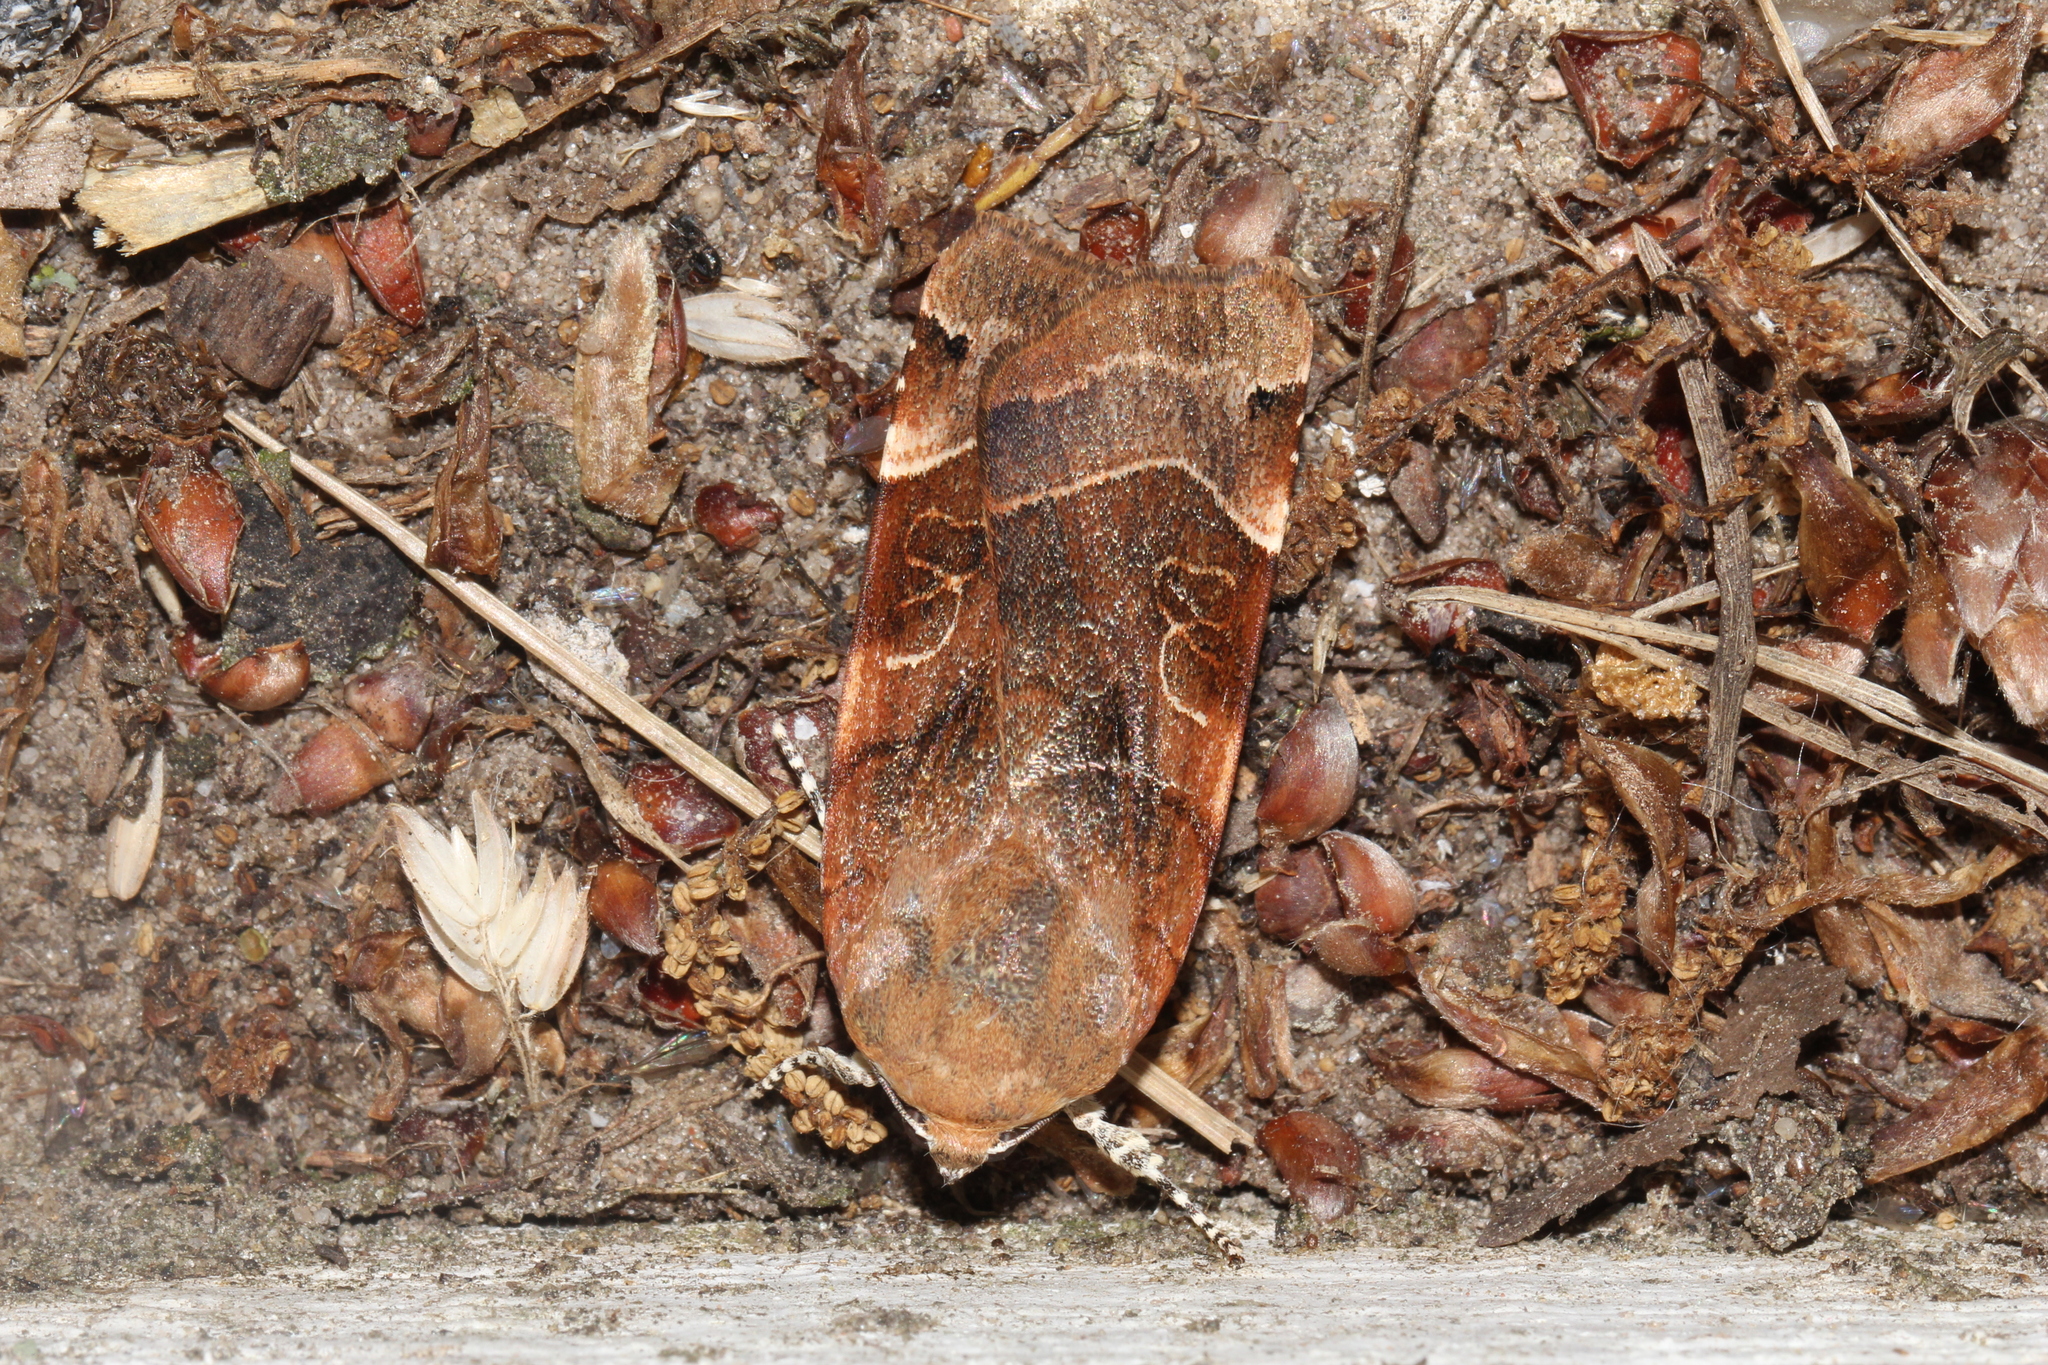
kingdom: Animalia
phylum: Arthropoda
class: Insecta
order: Lepidoptera
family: Noctuidae
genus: Noctua
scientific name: Noctua fimbriata
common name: Broad-bordered yellow underwing
